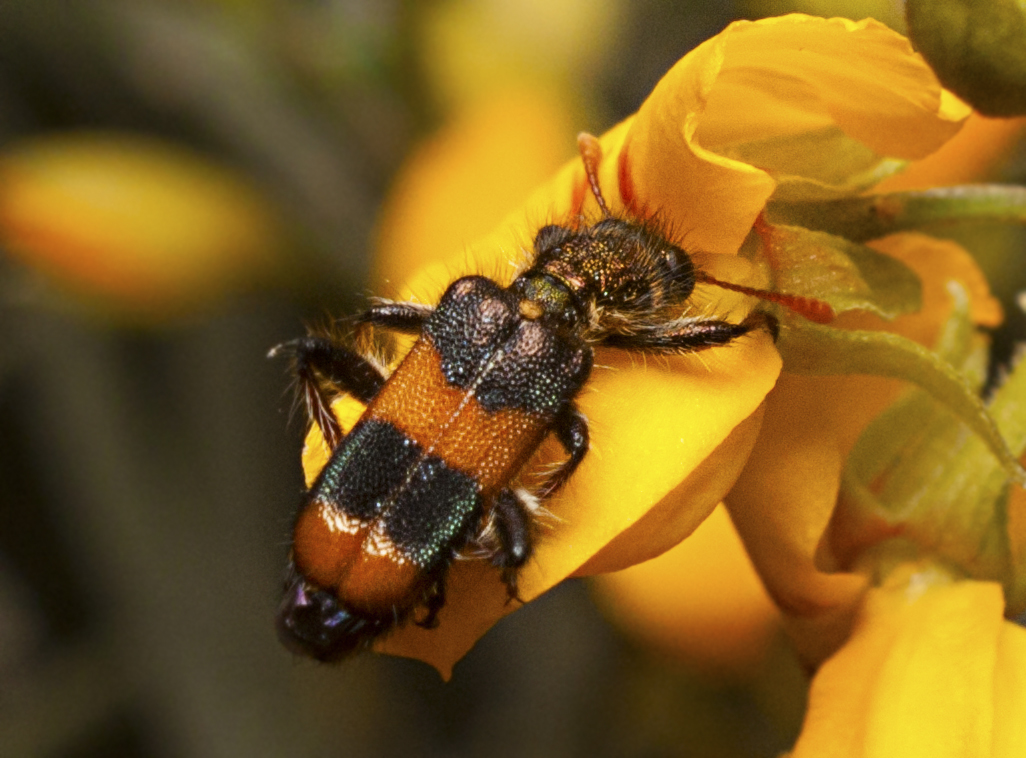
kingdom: Animalia
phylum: Arthropoda
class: Insecta
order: Coleoptera
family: Cleridae
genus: Eleale
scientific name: Eleale
